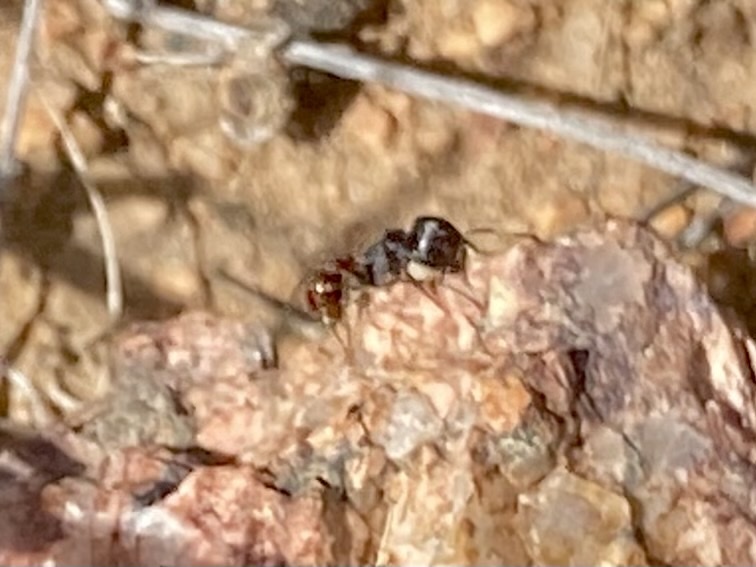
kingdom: Animalia
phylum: Arthropoda
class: Insecta
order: Hymenoptera
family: Formicidae
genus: Pogonomyrmex
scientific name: Pogonomyrmex rugosus
